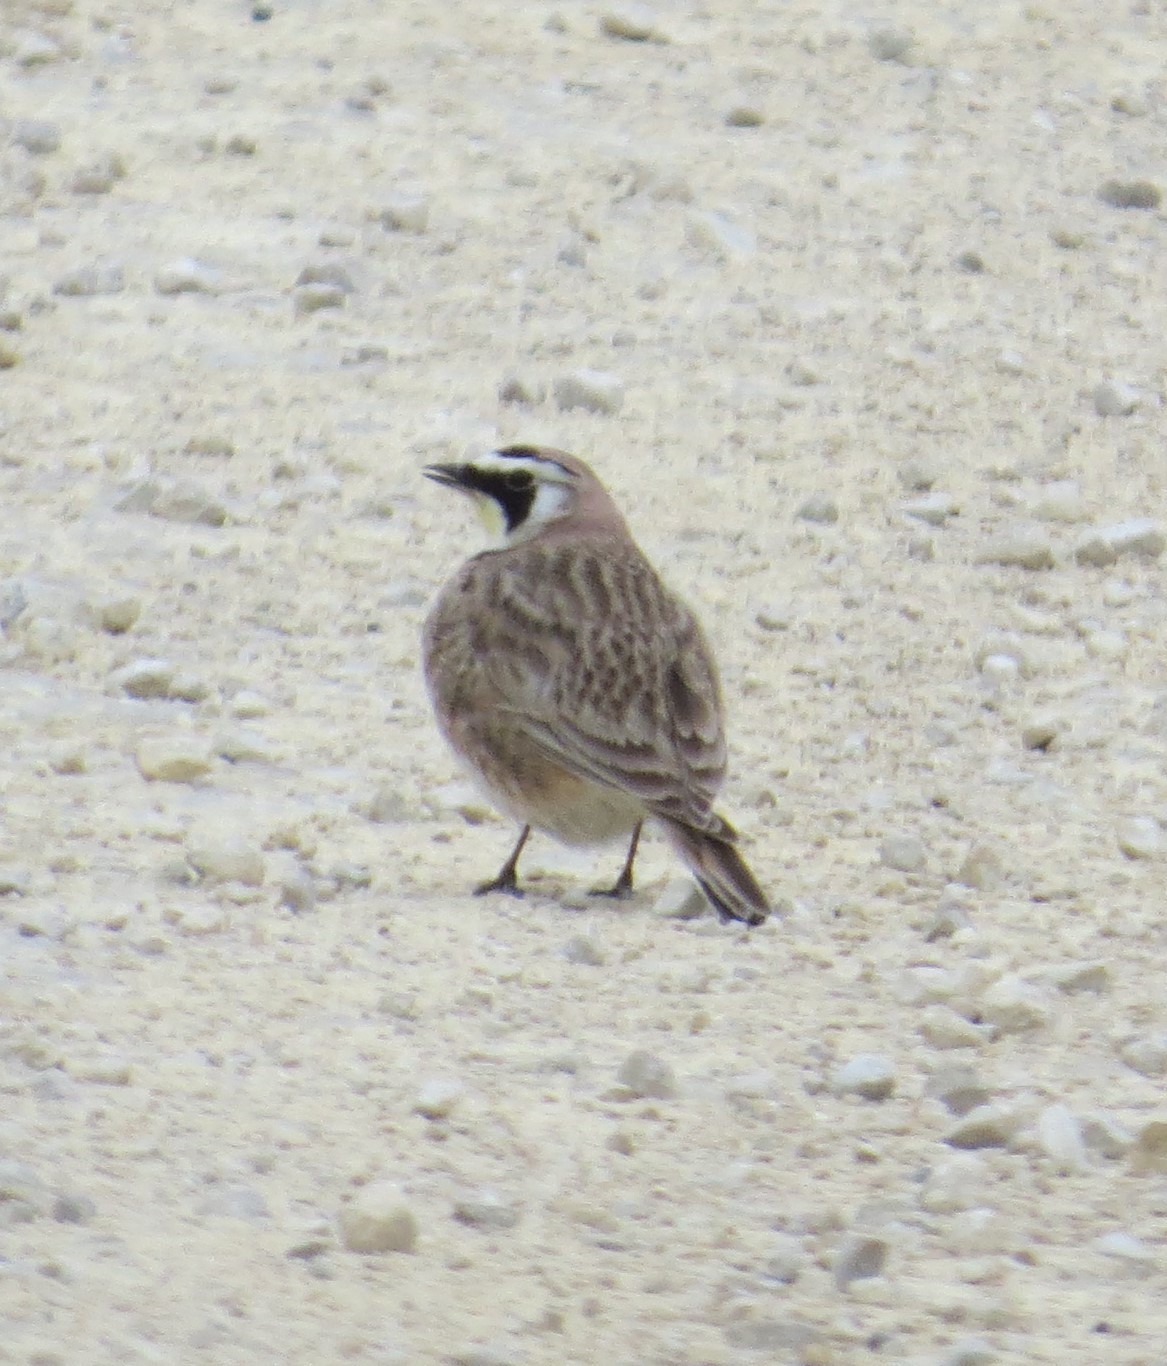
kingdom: Animalia
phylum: Chordata
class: Aves
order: Passeriformes
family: Alaudidae
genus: Eremophila
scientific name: Eremophila alpestris
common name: Horned lark
